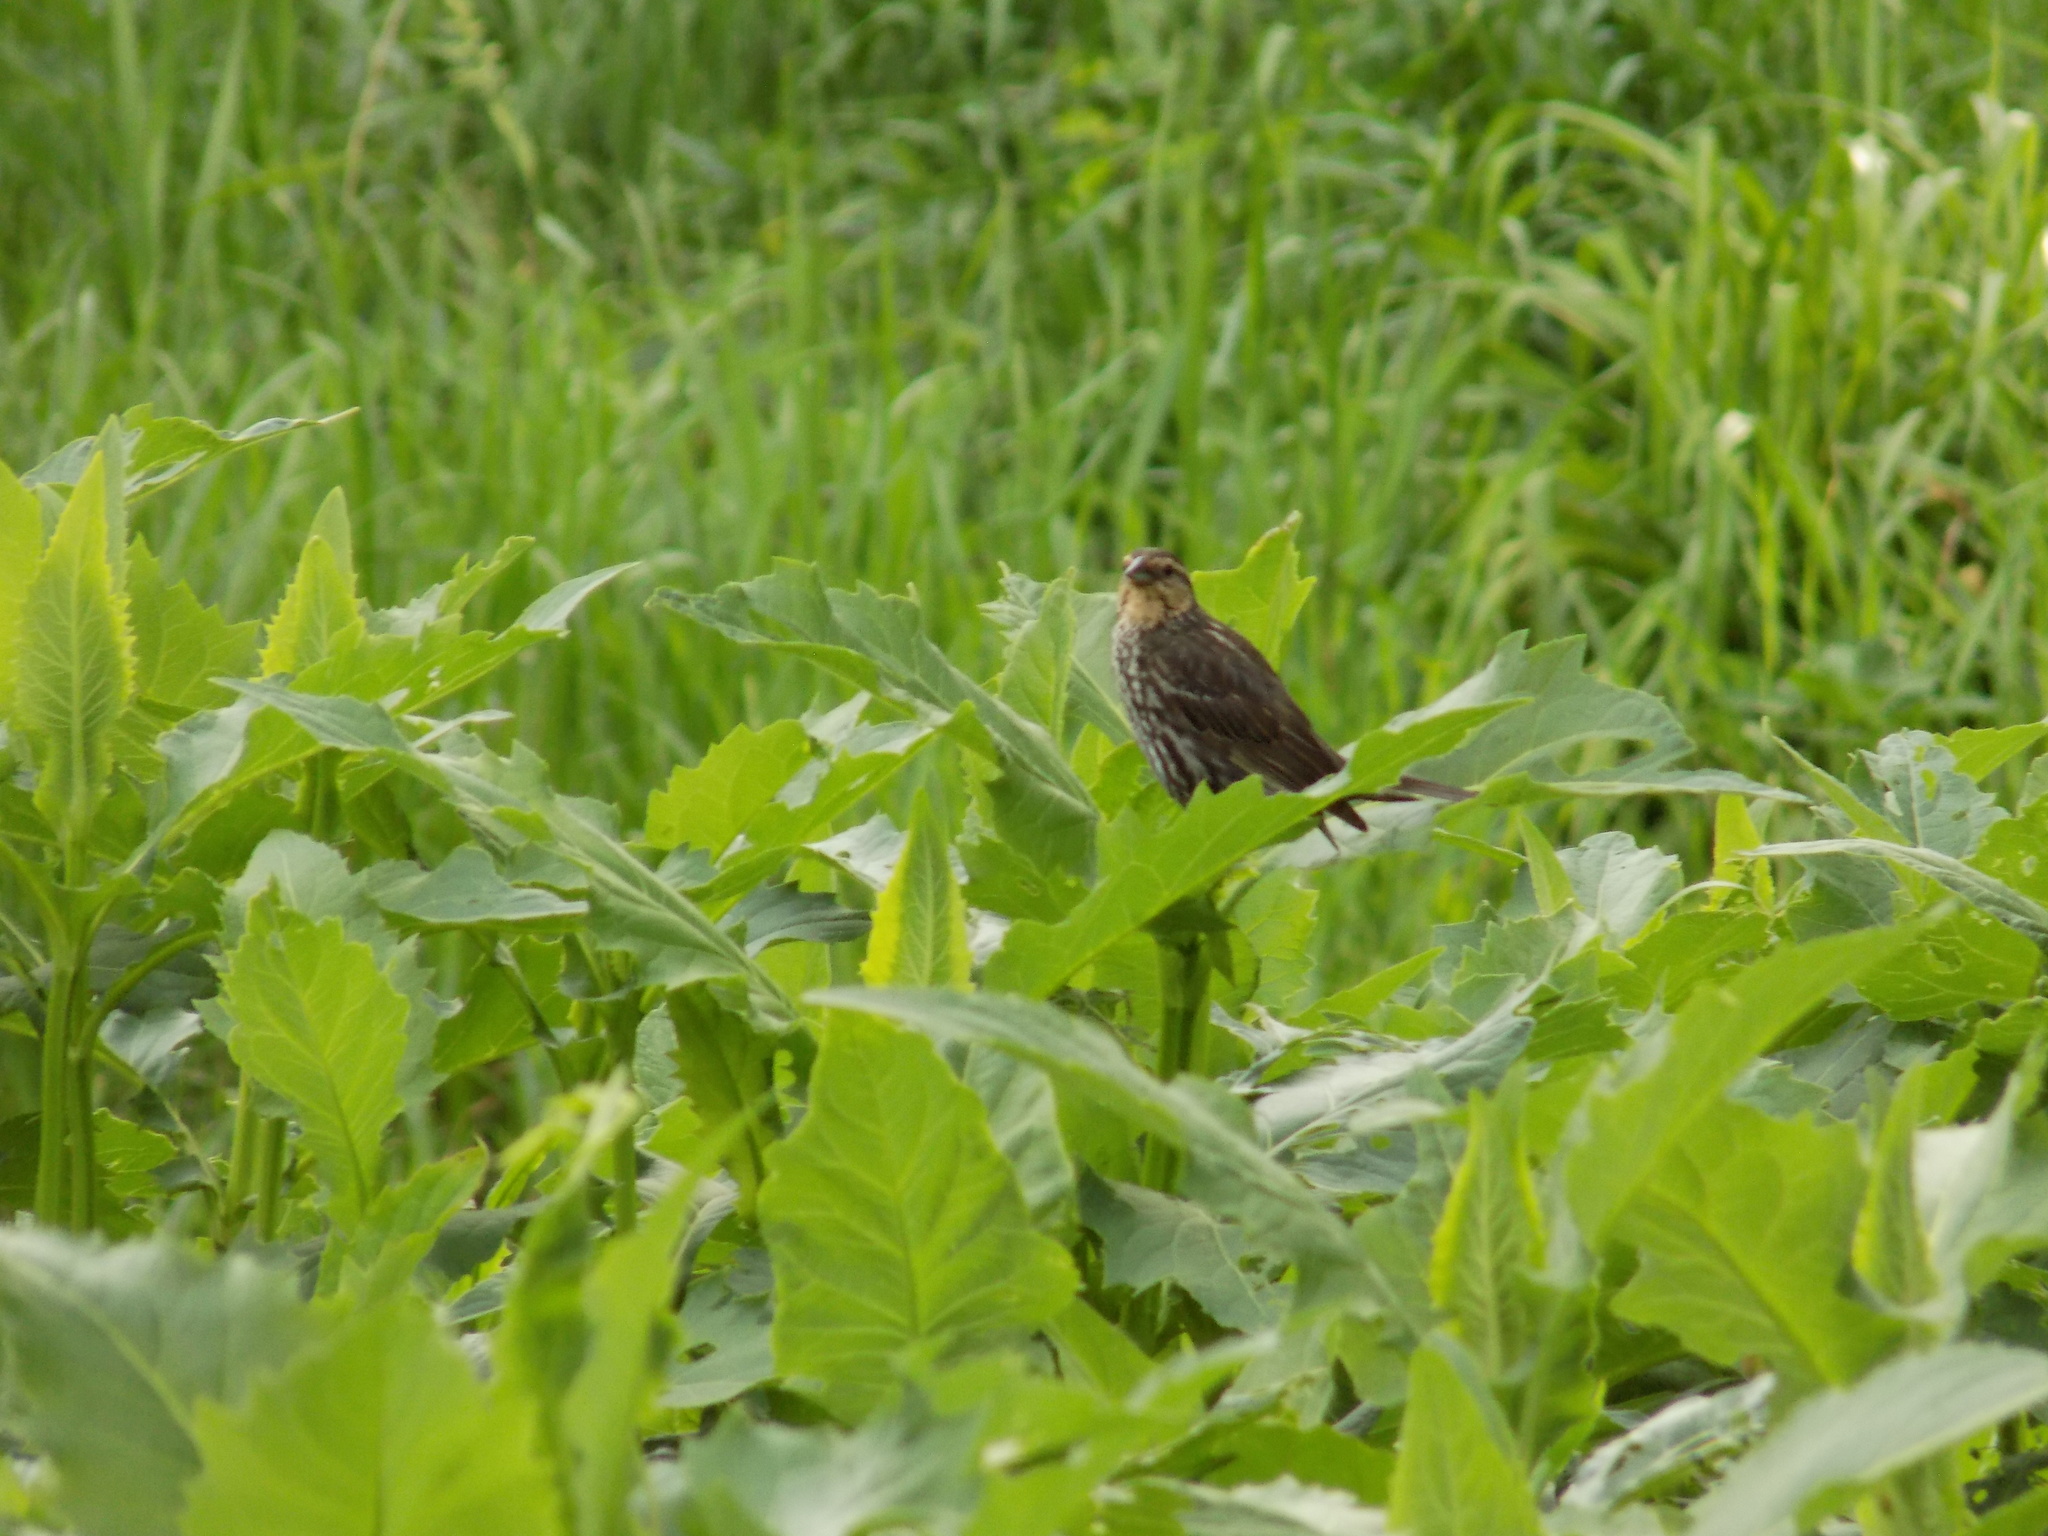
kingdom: Animalia
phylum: Chordata
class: Aves
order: Passeriformes
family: Icteridae
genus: Agelaius
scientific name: Agelaius phoeniceus
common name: Red-winged blackbird
